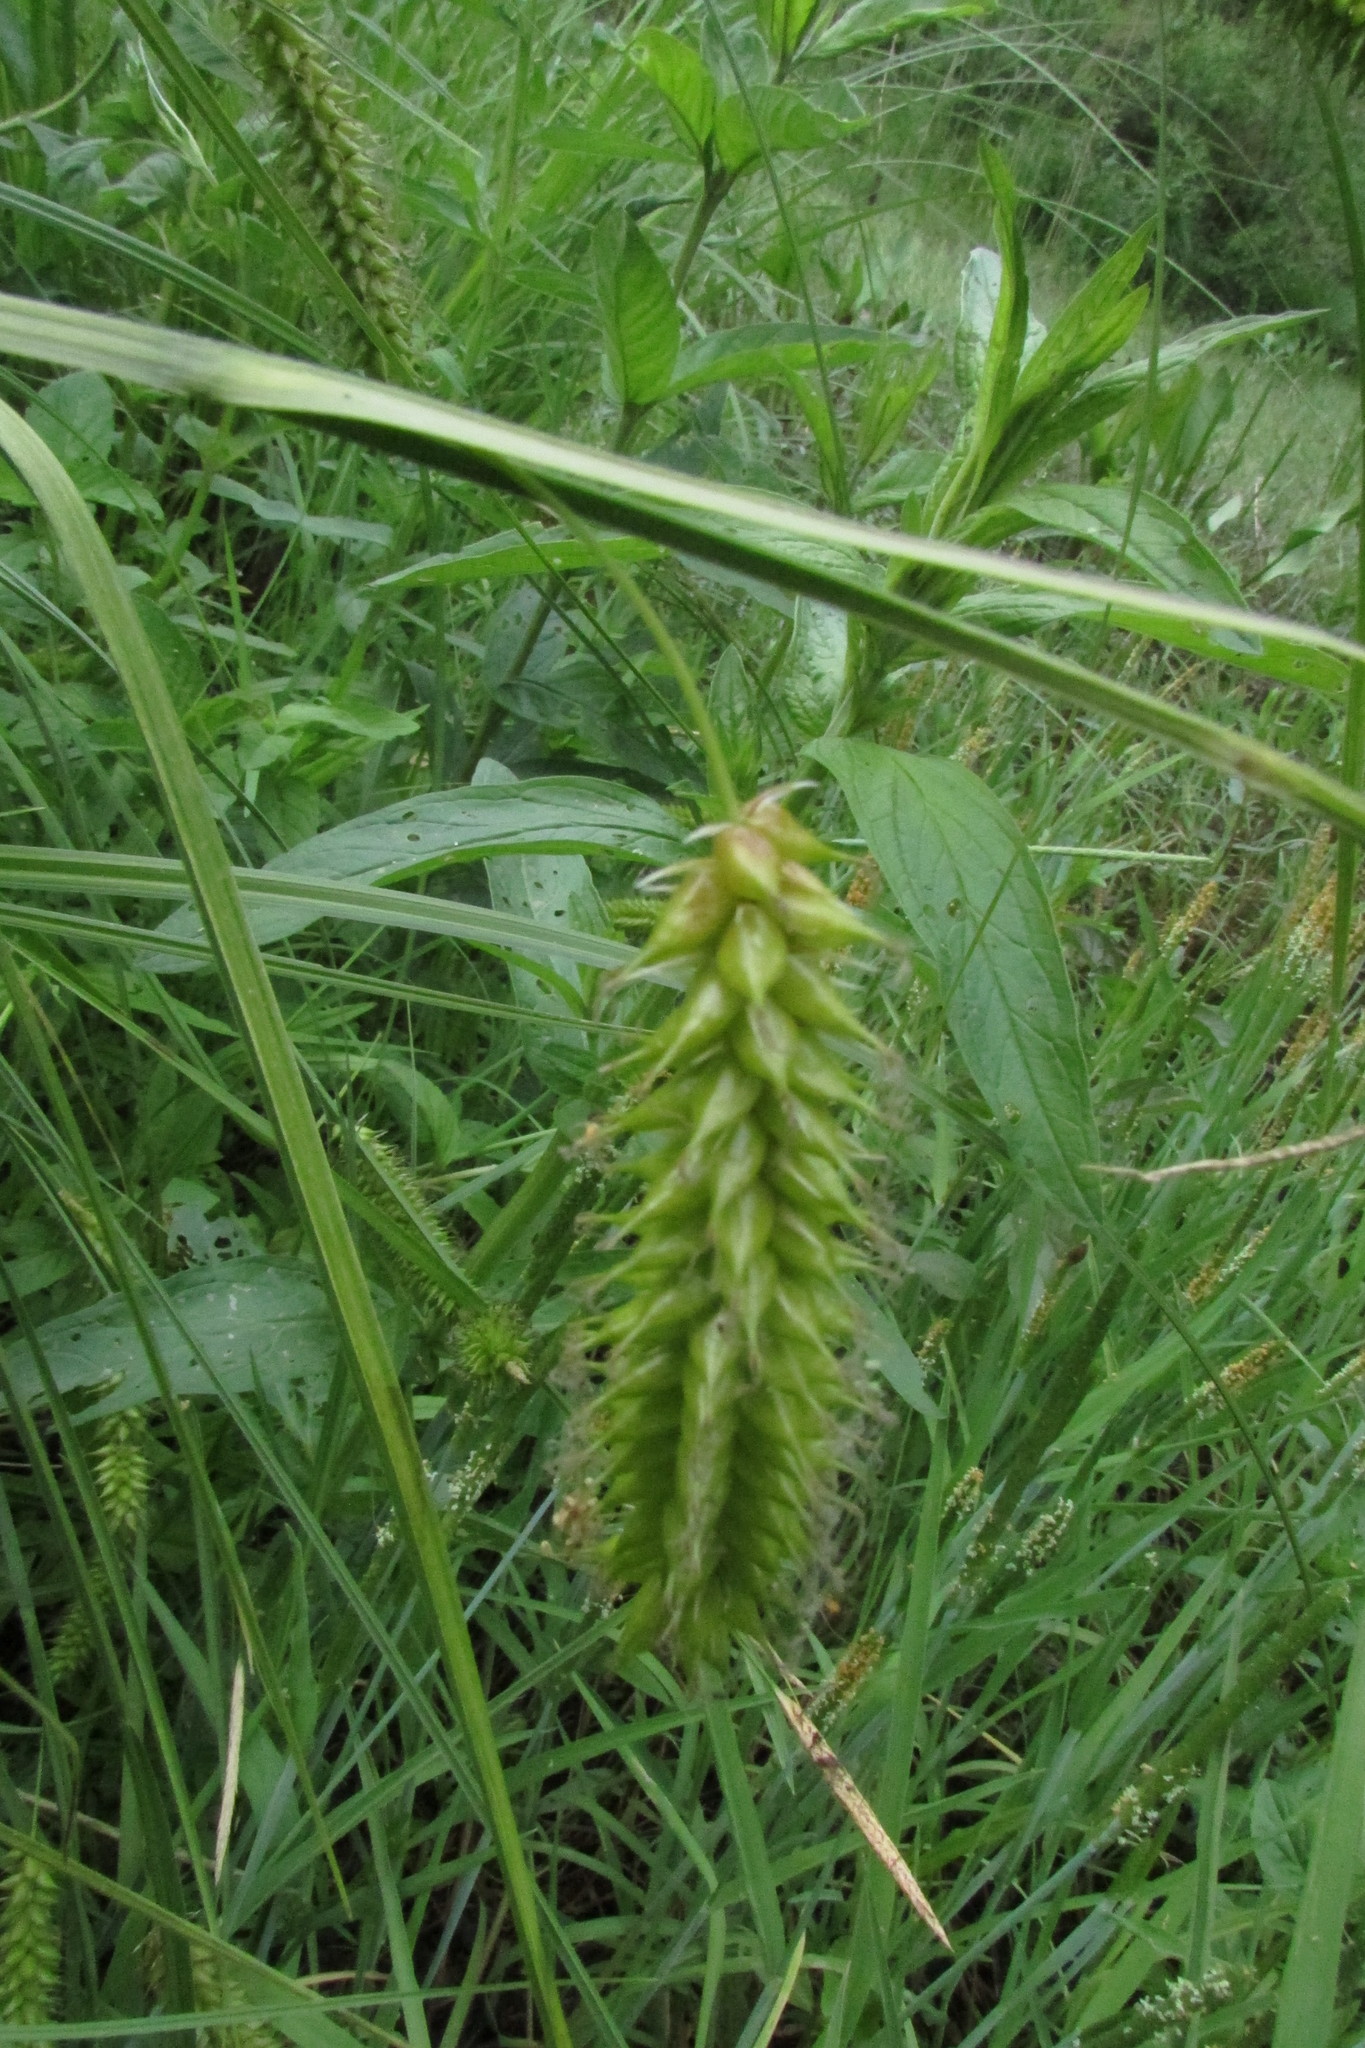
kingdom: Plantae
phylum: Tracheophyta
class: Liliopsida
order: Poales
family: Cyperaceae
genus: Carex
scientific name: Carex vesicaria
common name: Bladder-sedge
